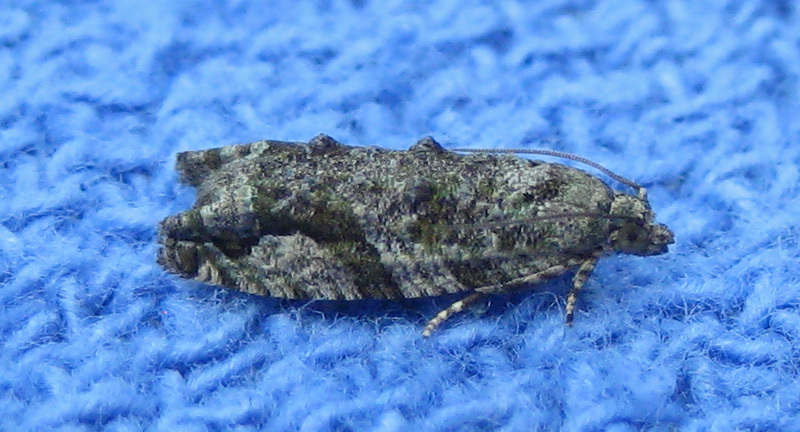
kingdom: Animalia
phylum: Arthropoda
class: Insecta
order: Lepidoptera
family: Tortricidae
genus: Proteoteras
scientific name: Proteoteras aesculana
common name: Maple twig borer moth
